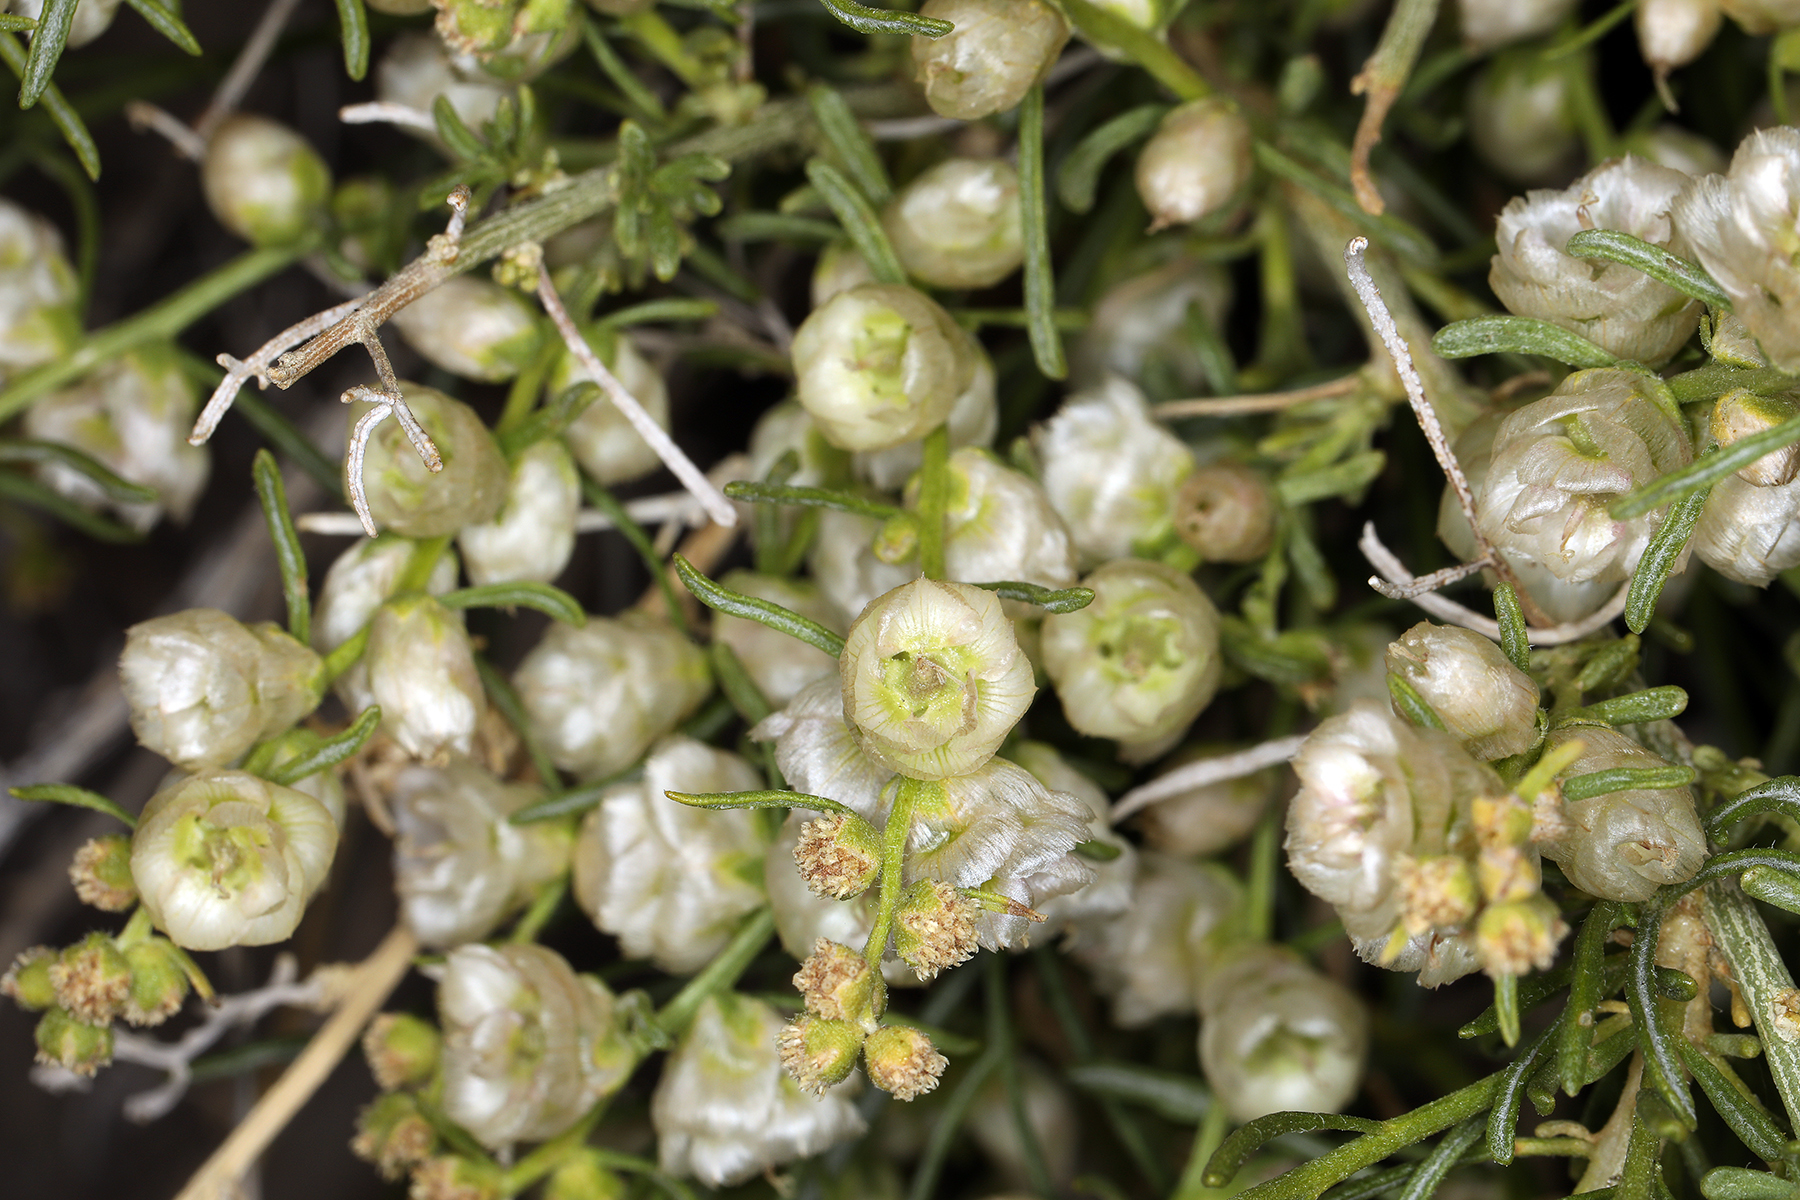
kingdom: Plantae
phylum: Tracheophyta
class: Magnoliopsida
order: Asterales
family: Asteraceae
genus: Ambrosia
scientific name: Ambrosia salsola
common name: Burrobrush
